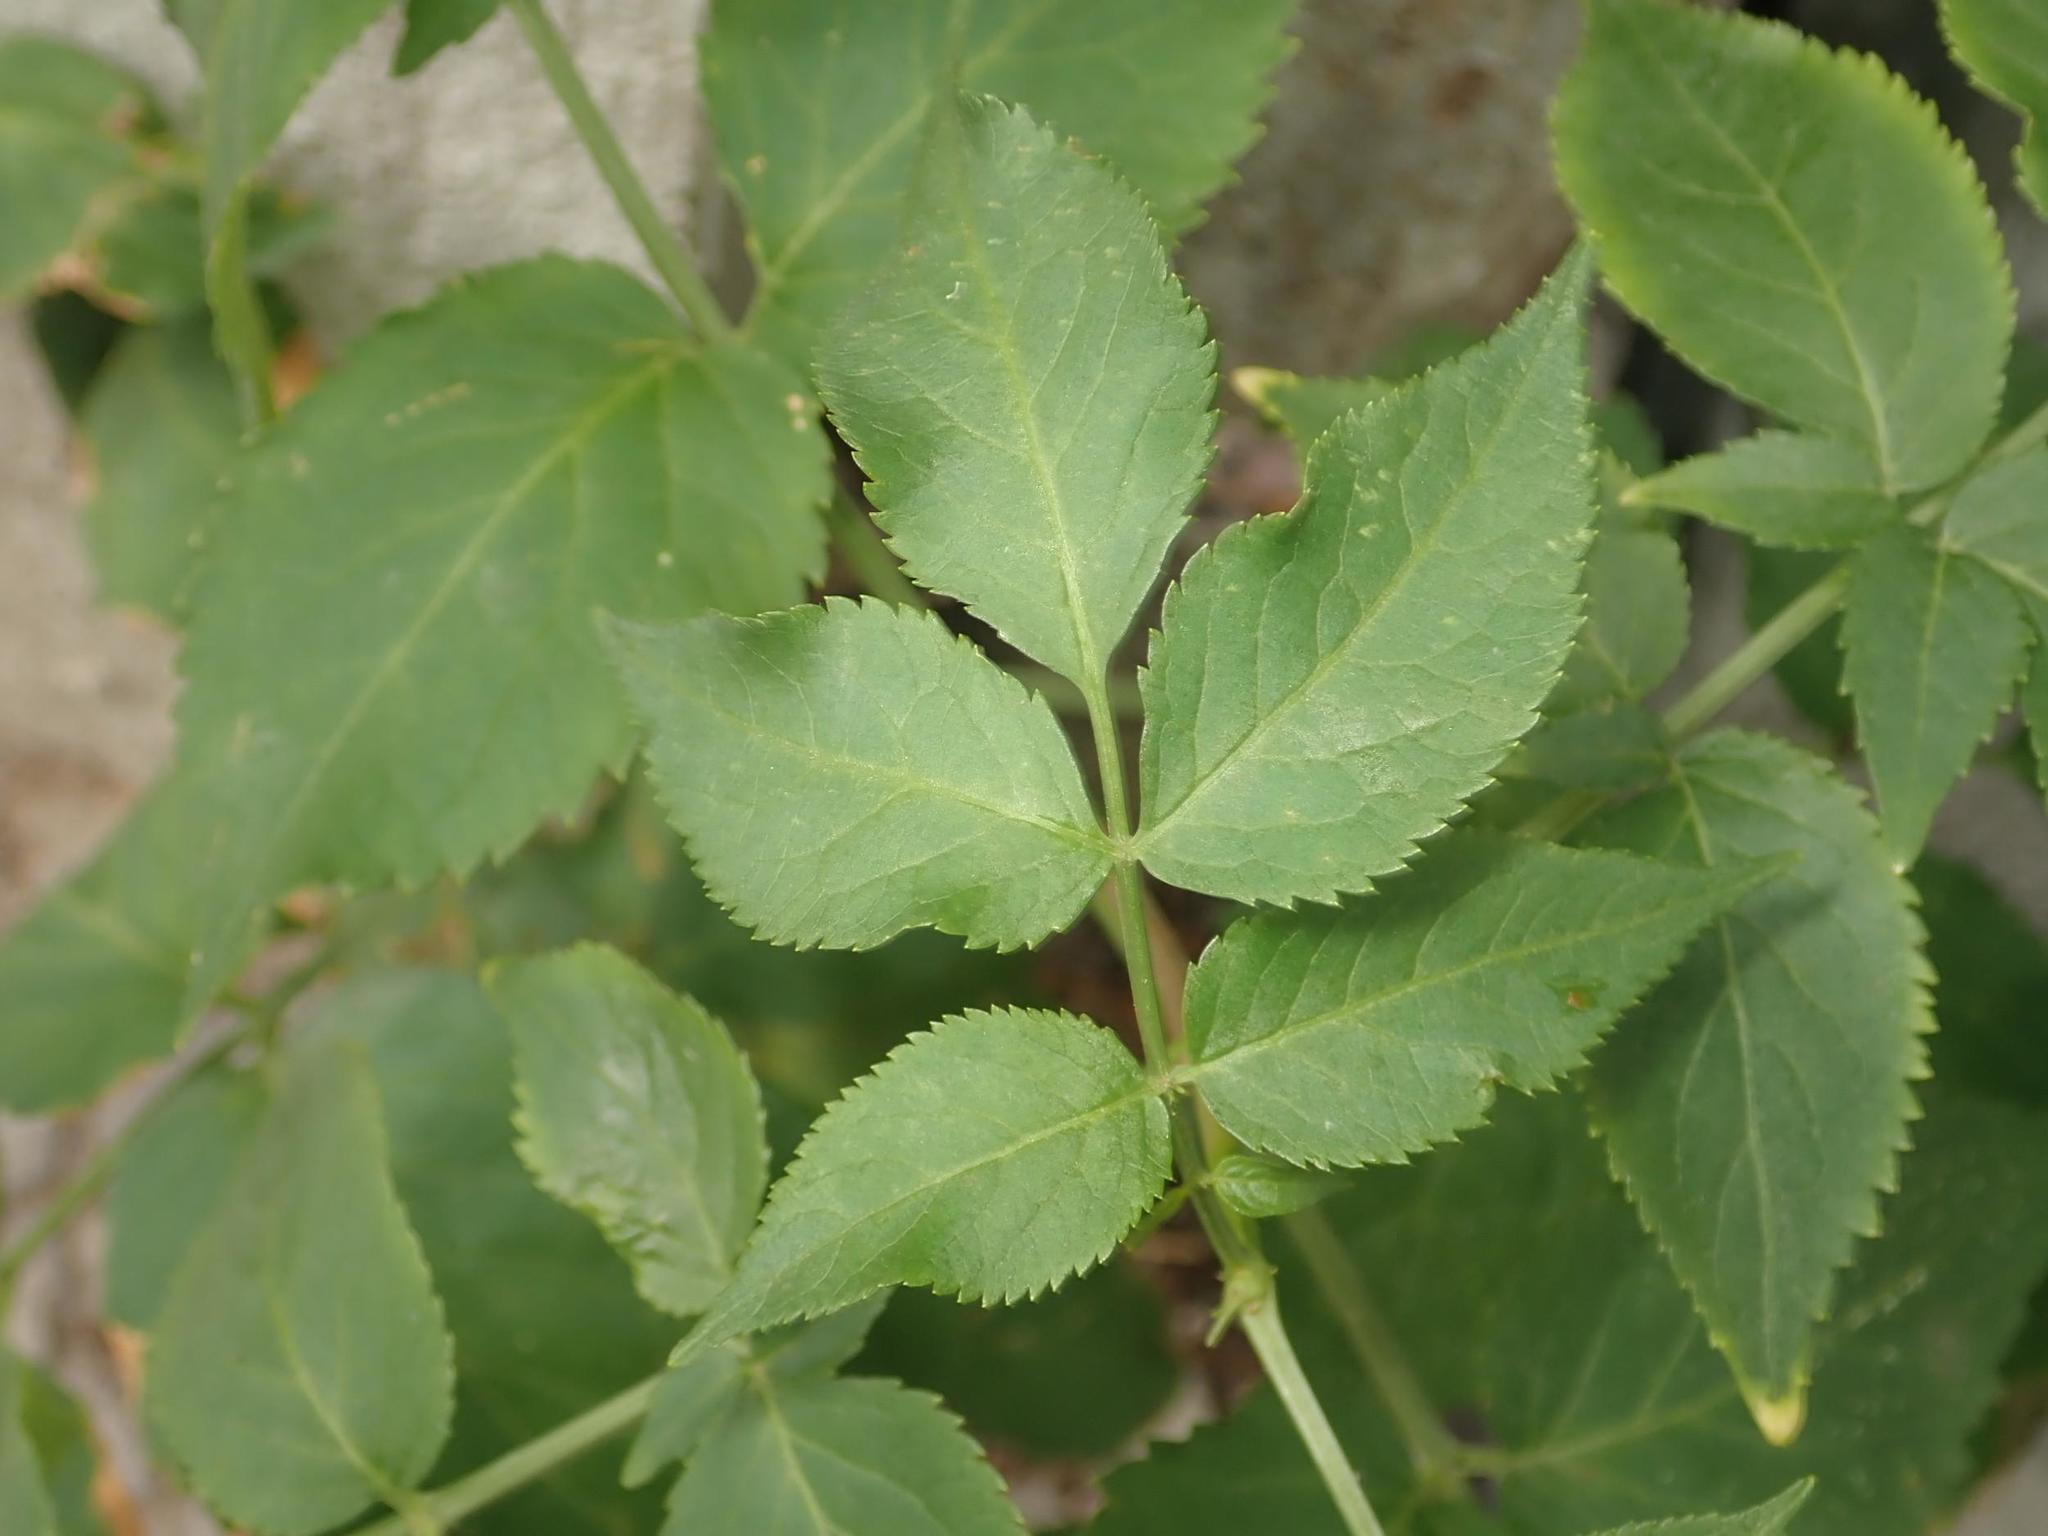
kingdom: Plantae
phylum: Tracheophyta
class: Magnoliopsida
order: Dipsacales
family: Viburnaceae
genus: Sambucus
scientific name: Sambucus nigra
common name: Elder
